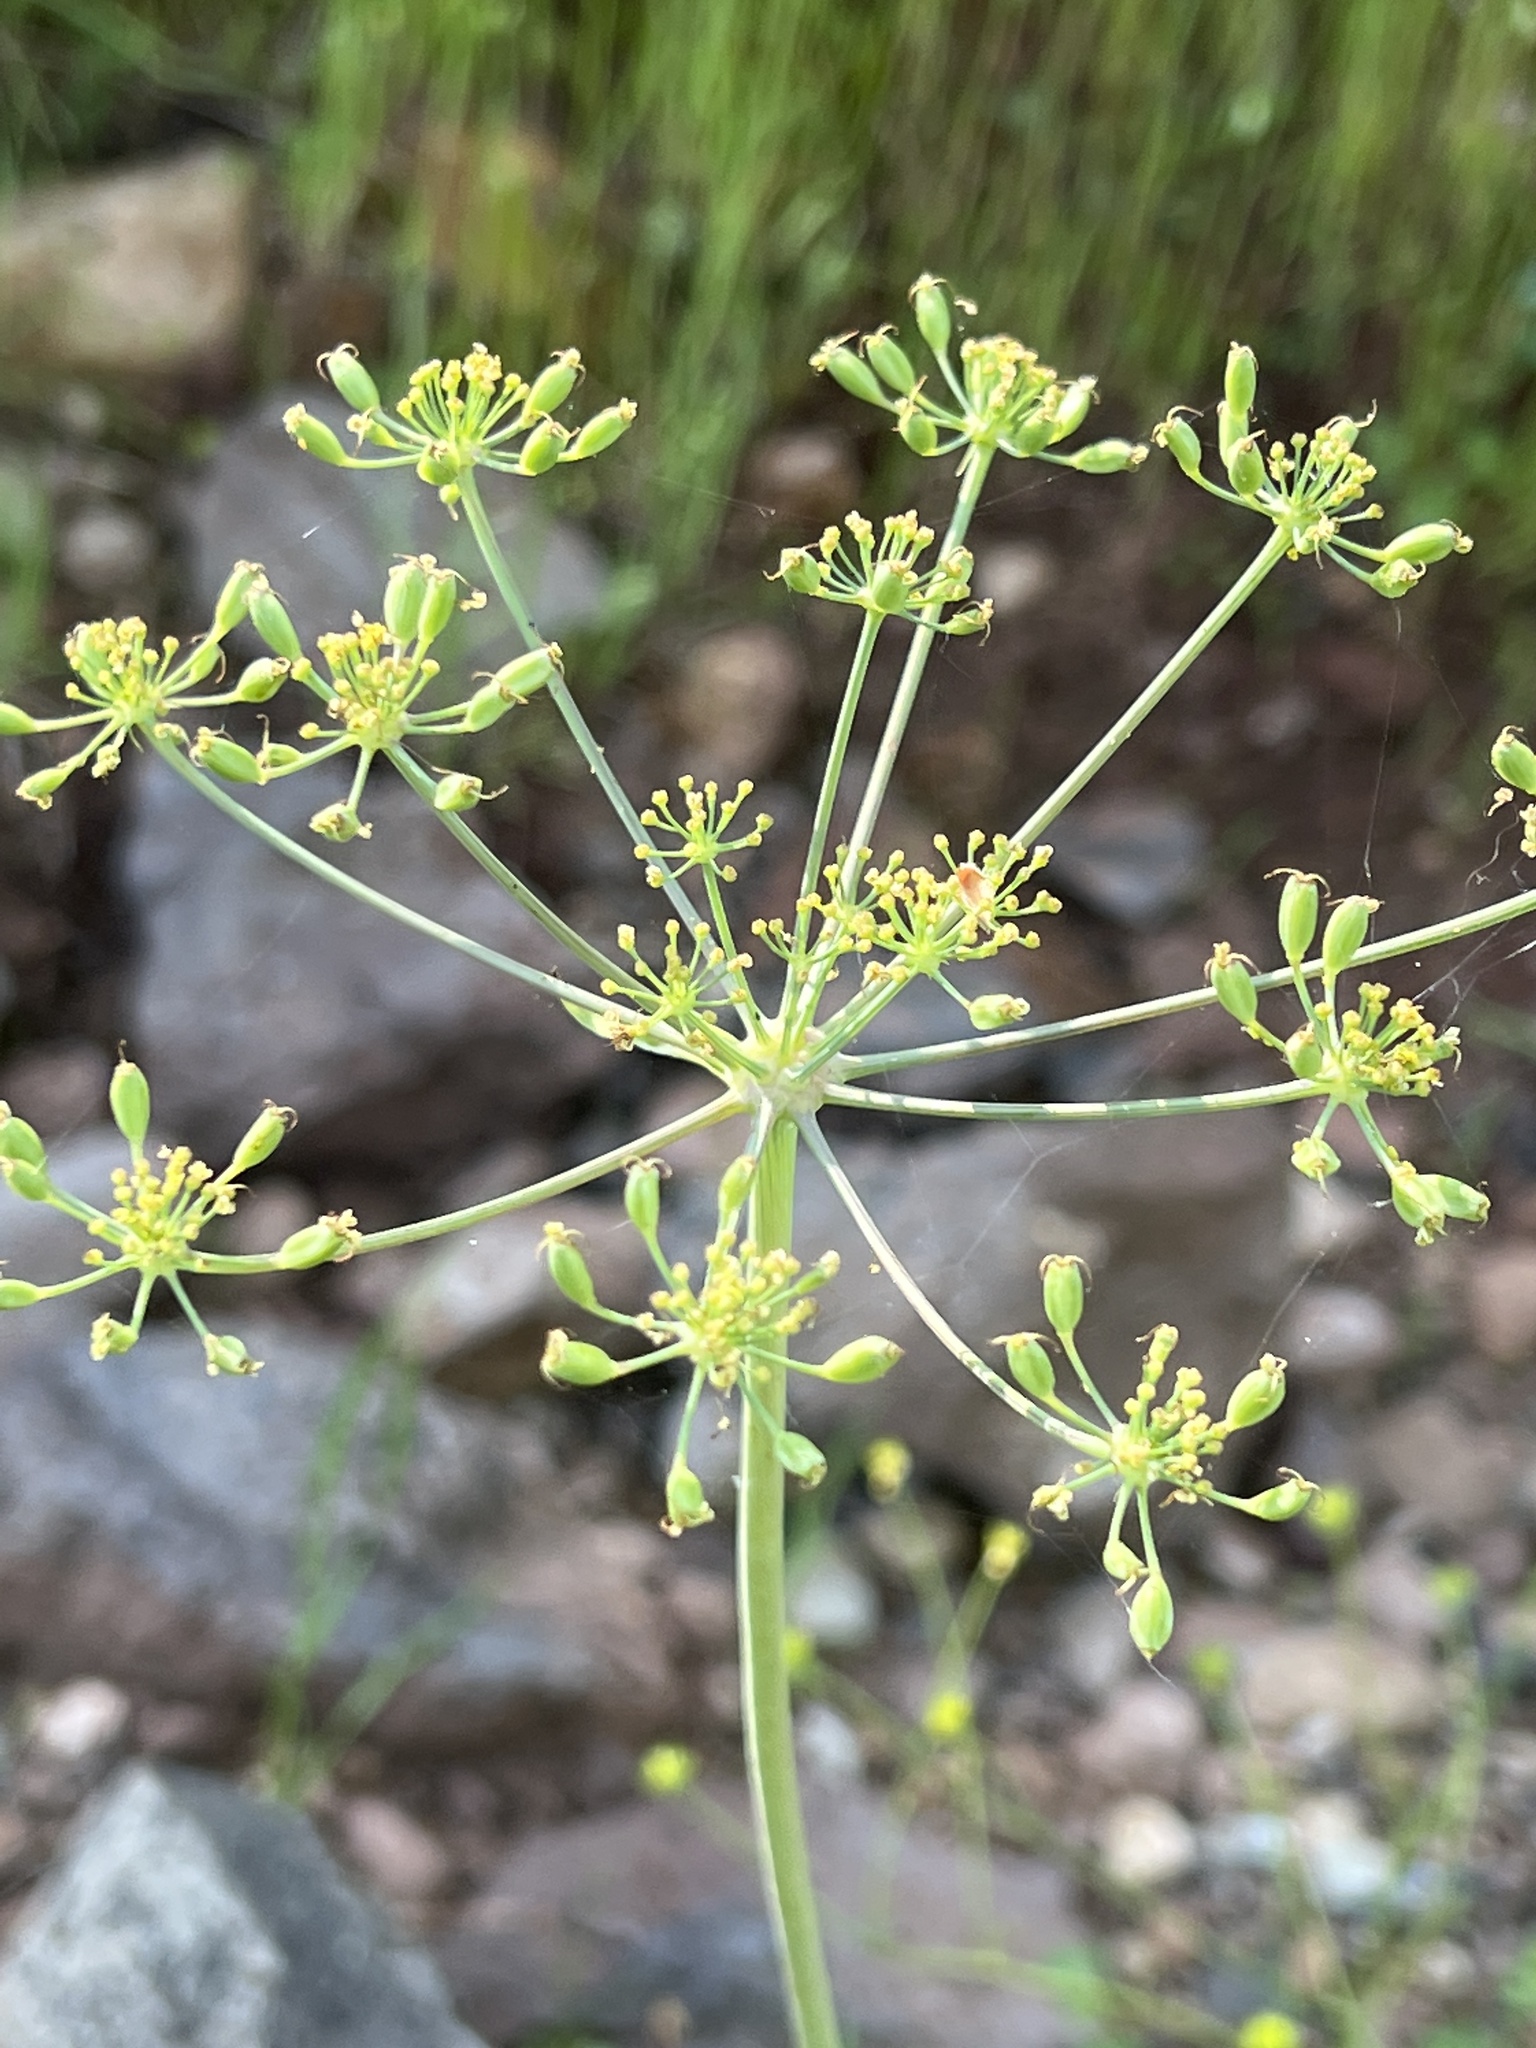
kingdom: Plantae
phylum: Tracheophyta
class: Magnoliopsida
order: Apiales
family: Apiaceae
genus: Lomatium
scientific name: Lomatium californicum
